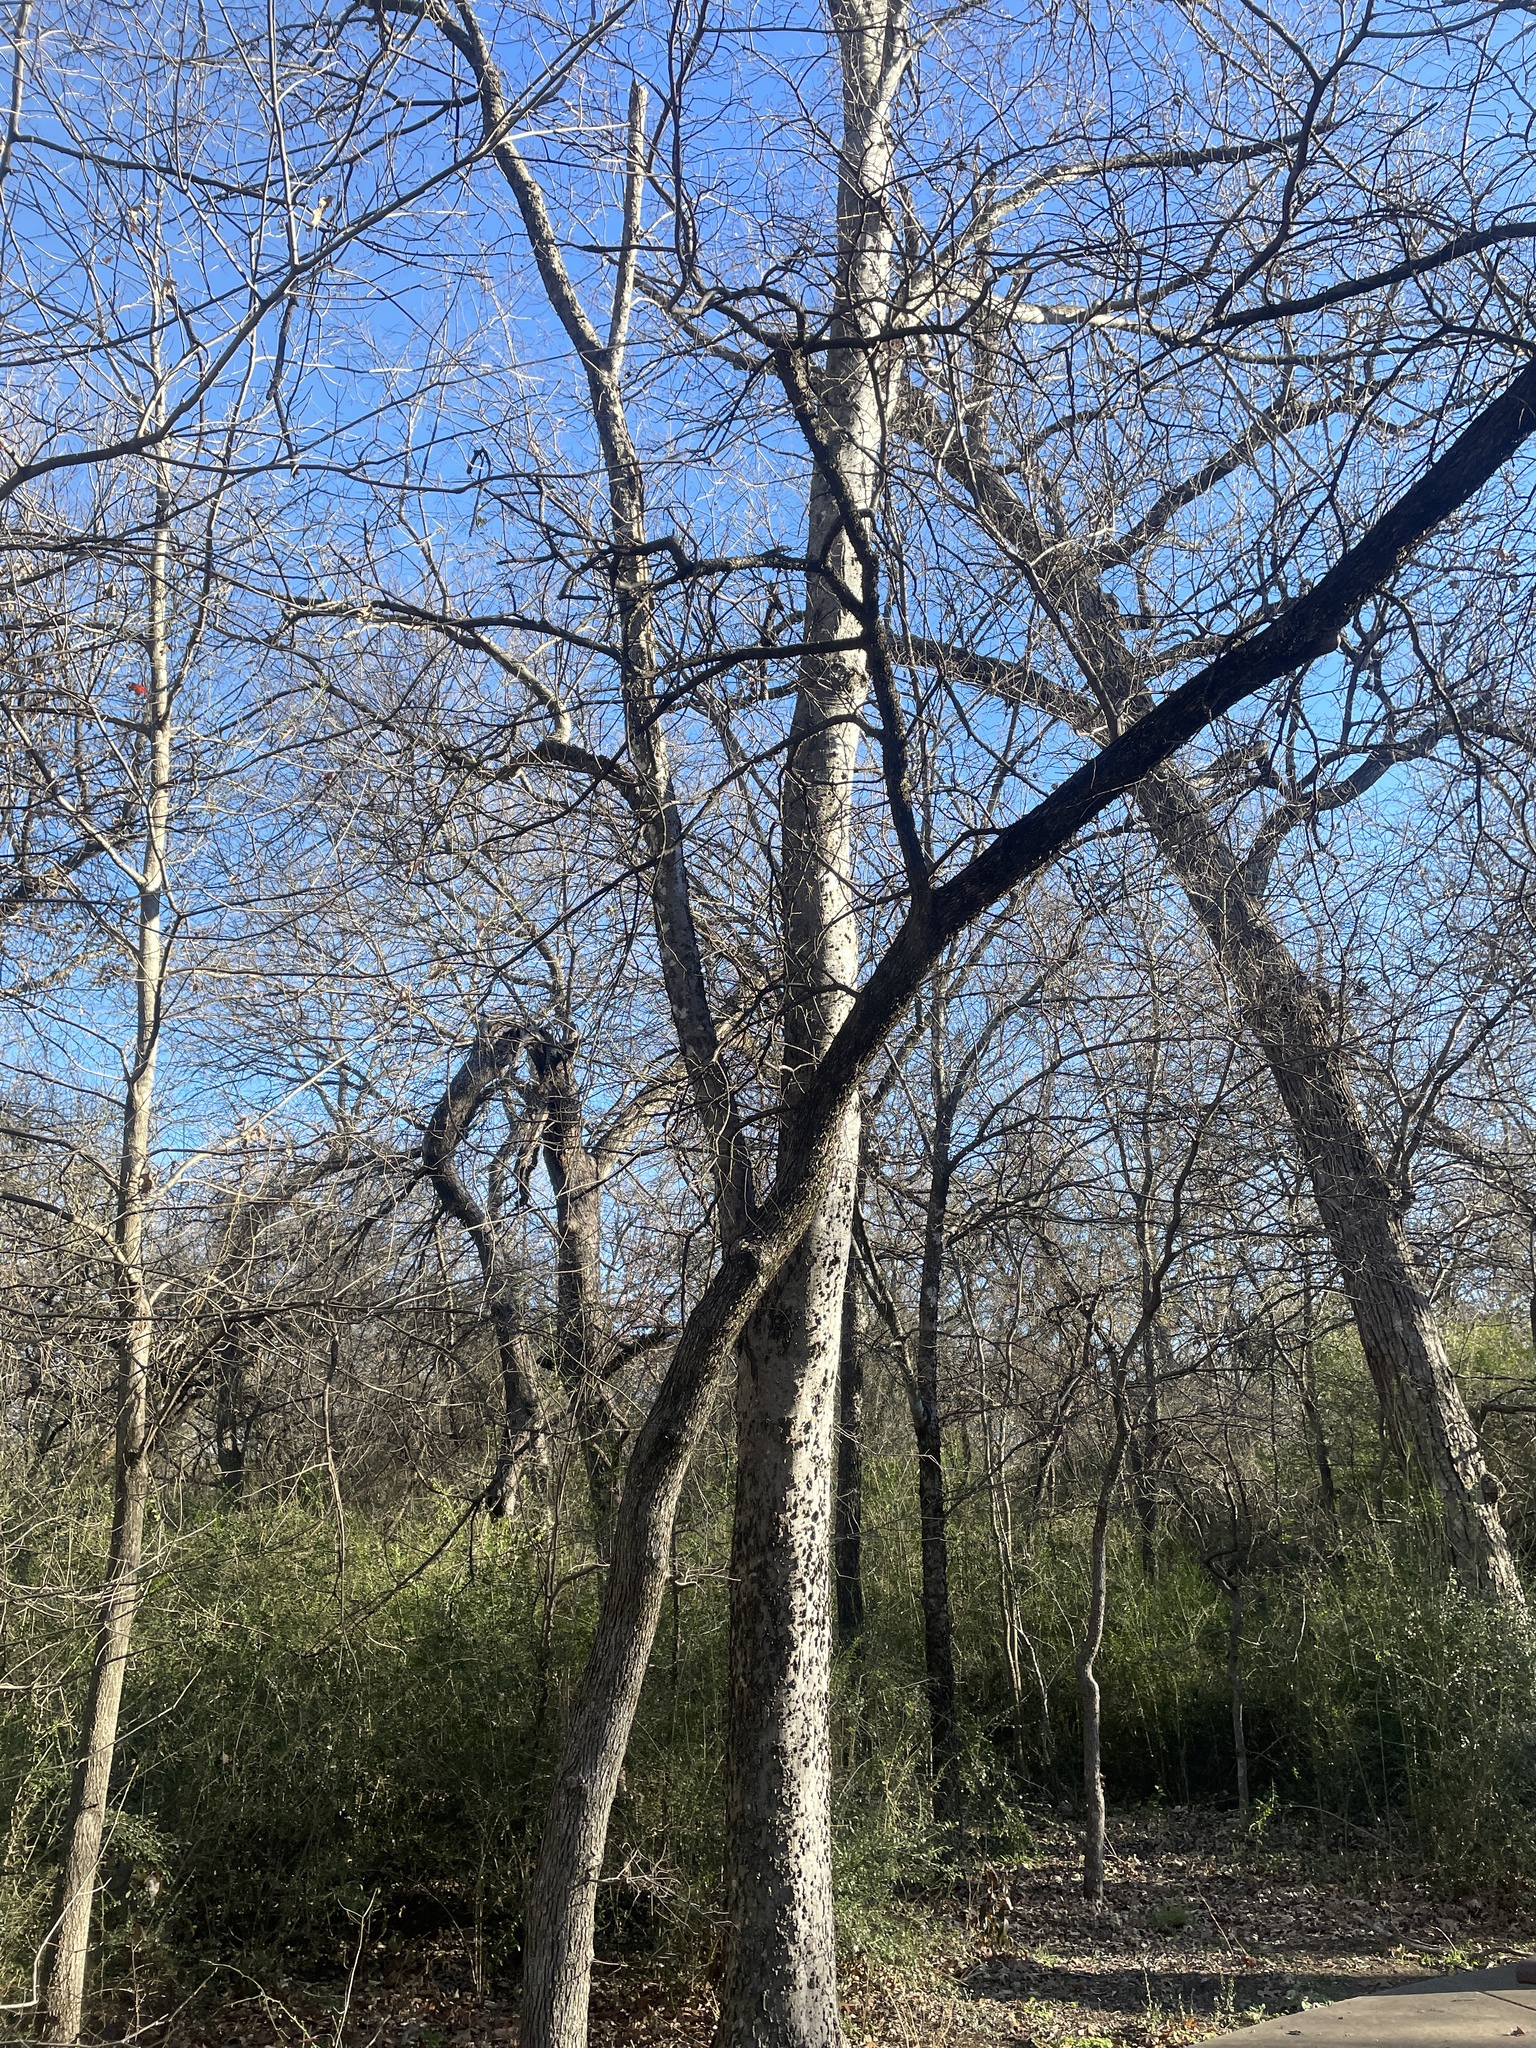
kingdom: Plantae
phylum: Tracheophyta
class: Magnoliopsida
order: Rosales
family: Cannabaceae
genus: Celtis
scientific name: Celtis laevigata
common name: Sugarberry
